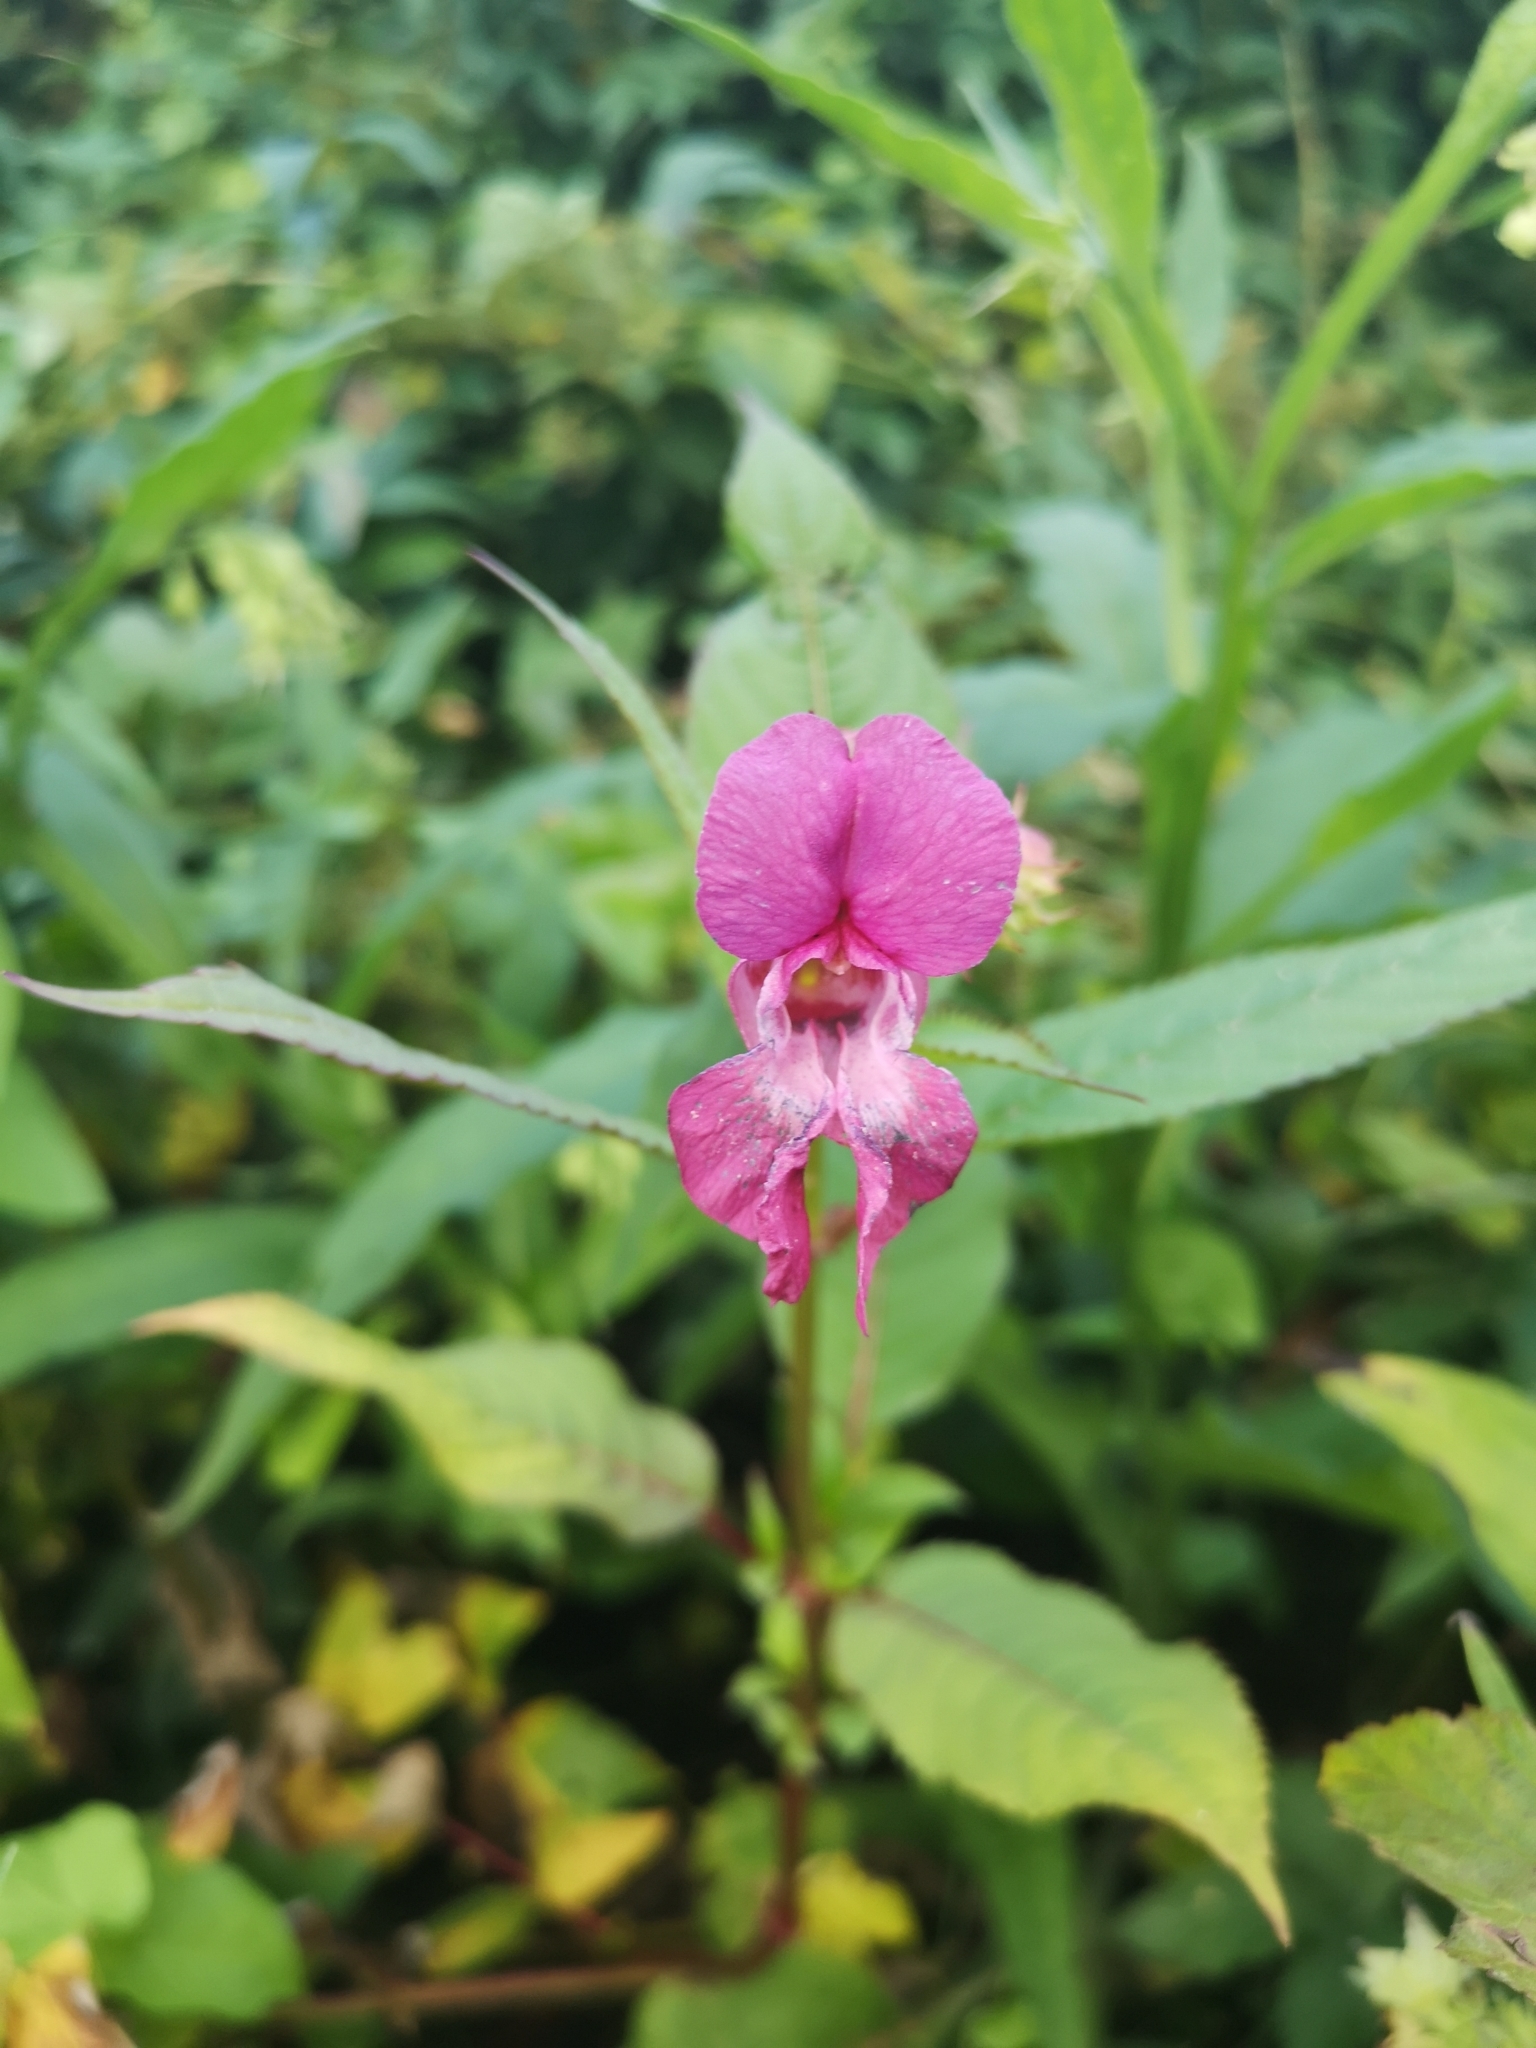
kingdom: Plantae
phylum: Tracheophyta
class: Magnoliopsida
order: Ericales
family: Balsaminaceae
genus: Impatiens
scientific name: Impatiens glandulifera
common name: Himalayan balsam
